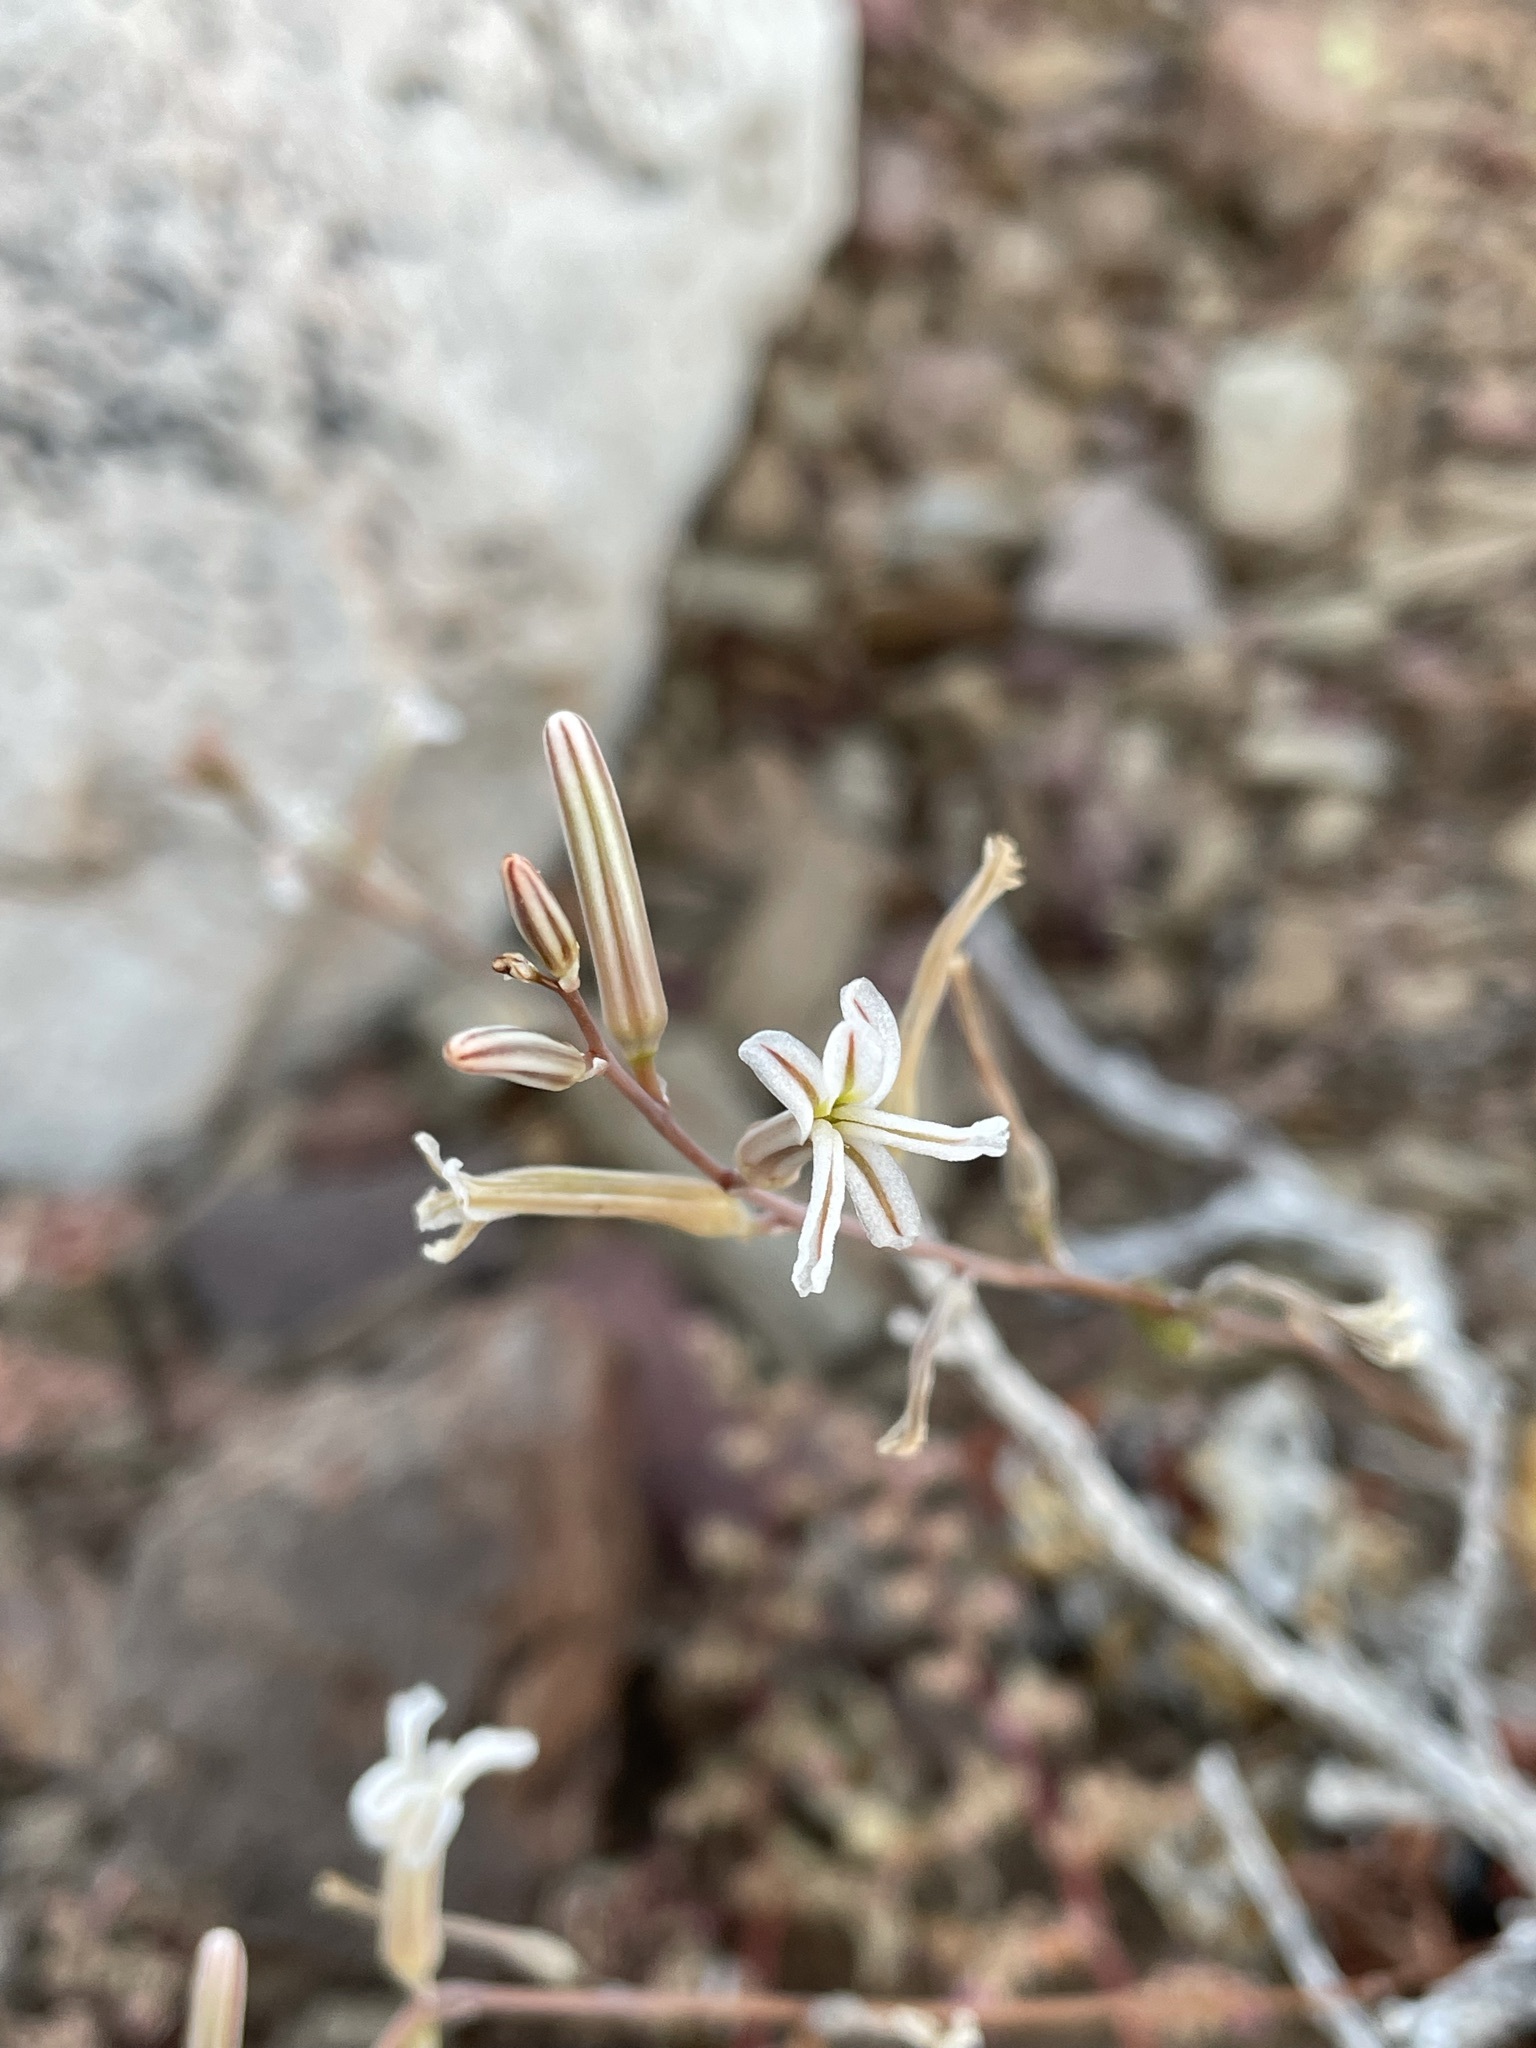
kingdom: Plantae
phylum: Tracheophyta
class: Liliopsida
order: Asparagales
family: Asphodelaceae
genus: Haworthiopsis
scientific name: Haworthiopsis viscosa
